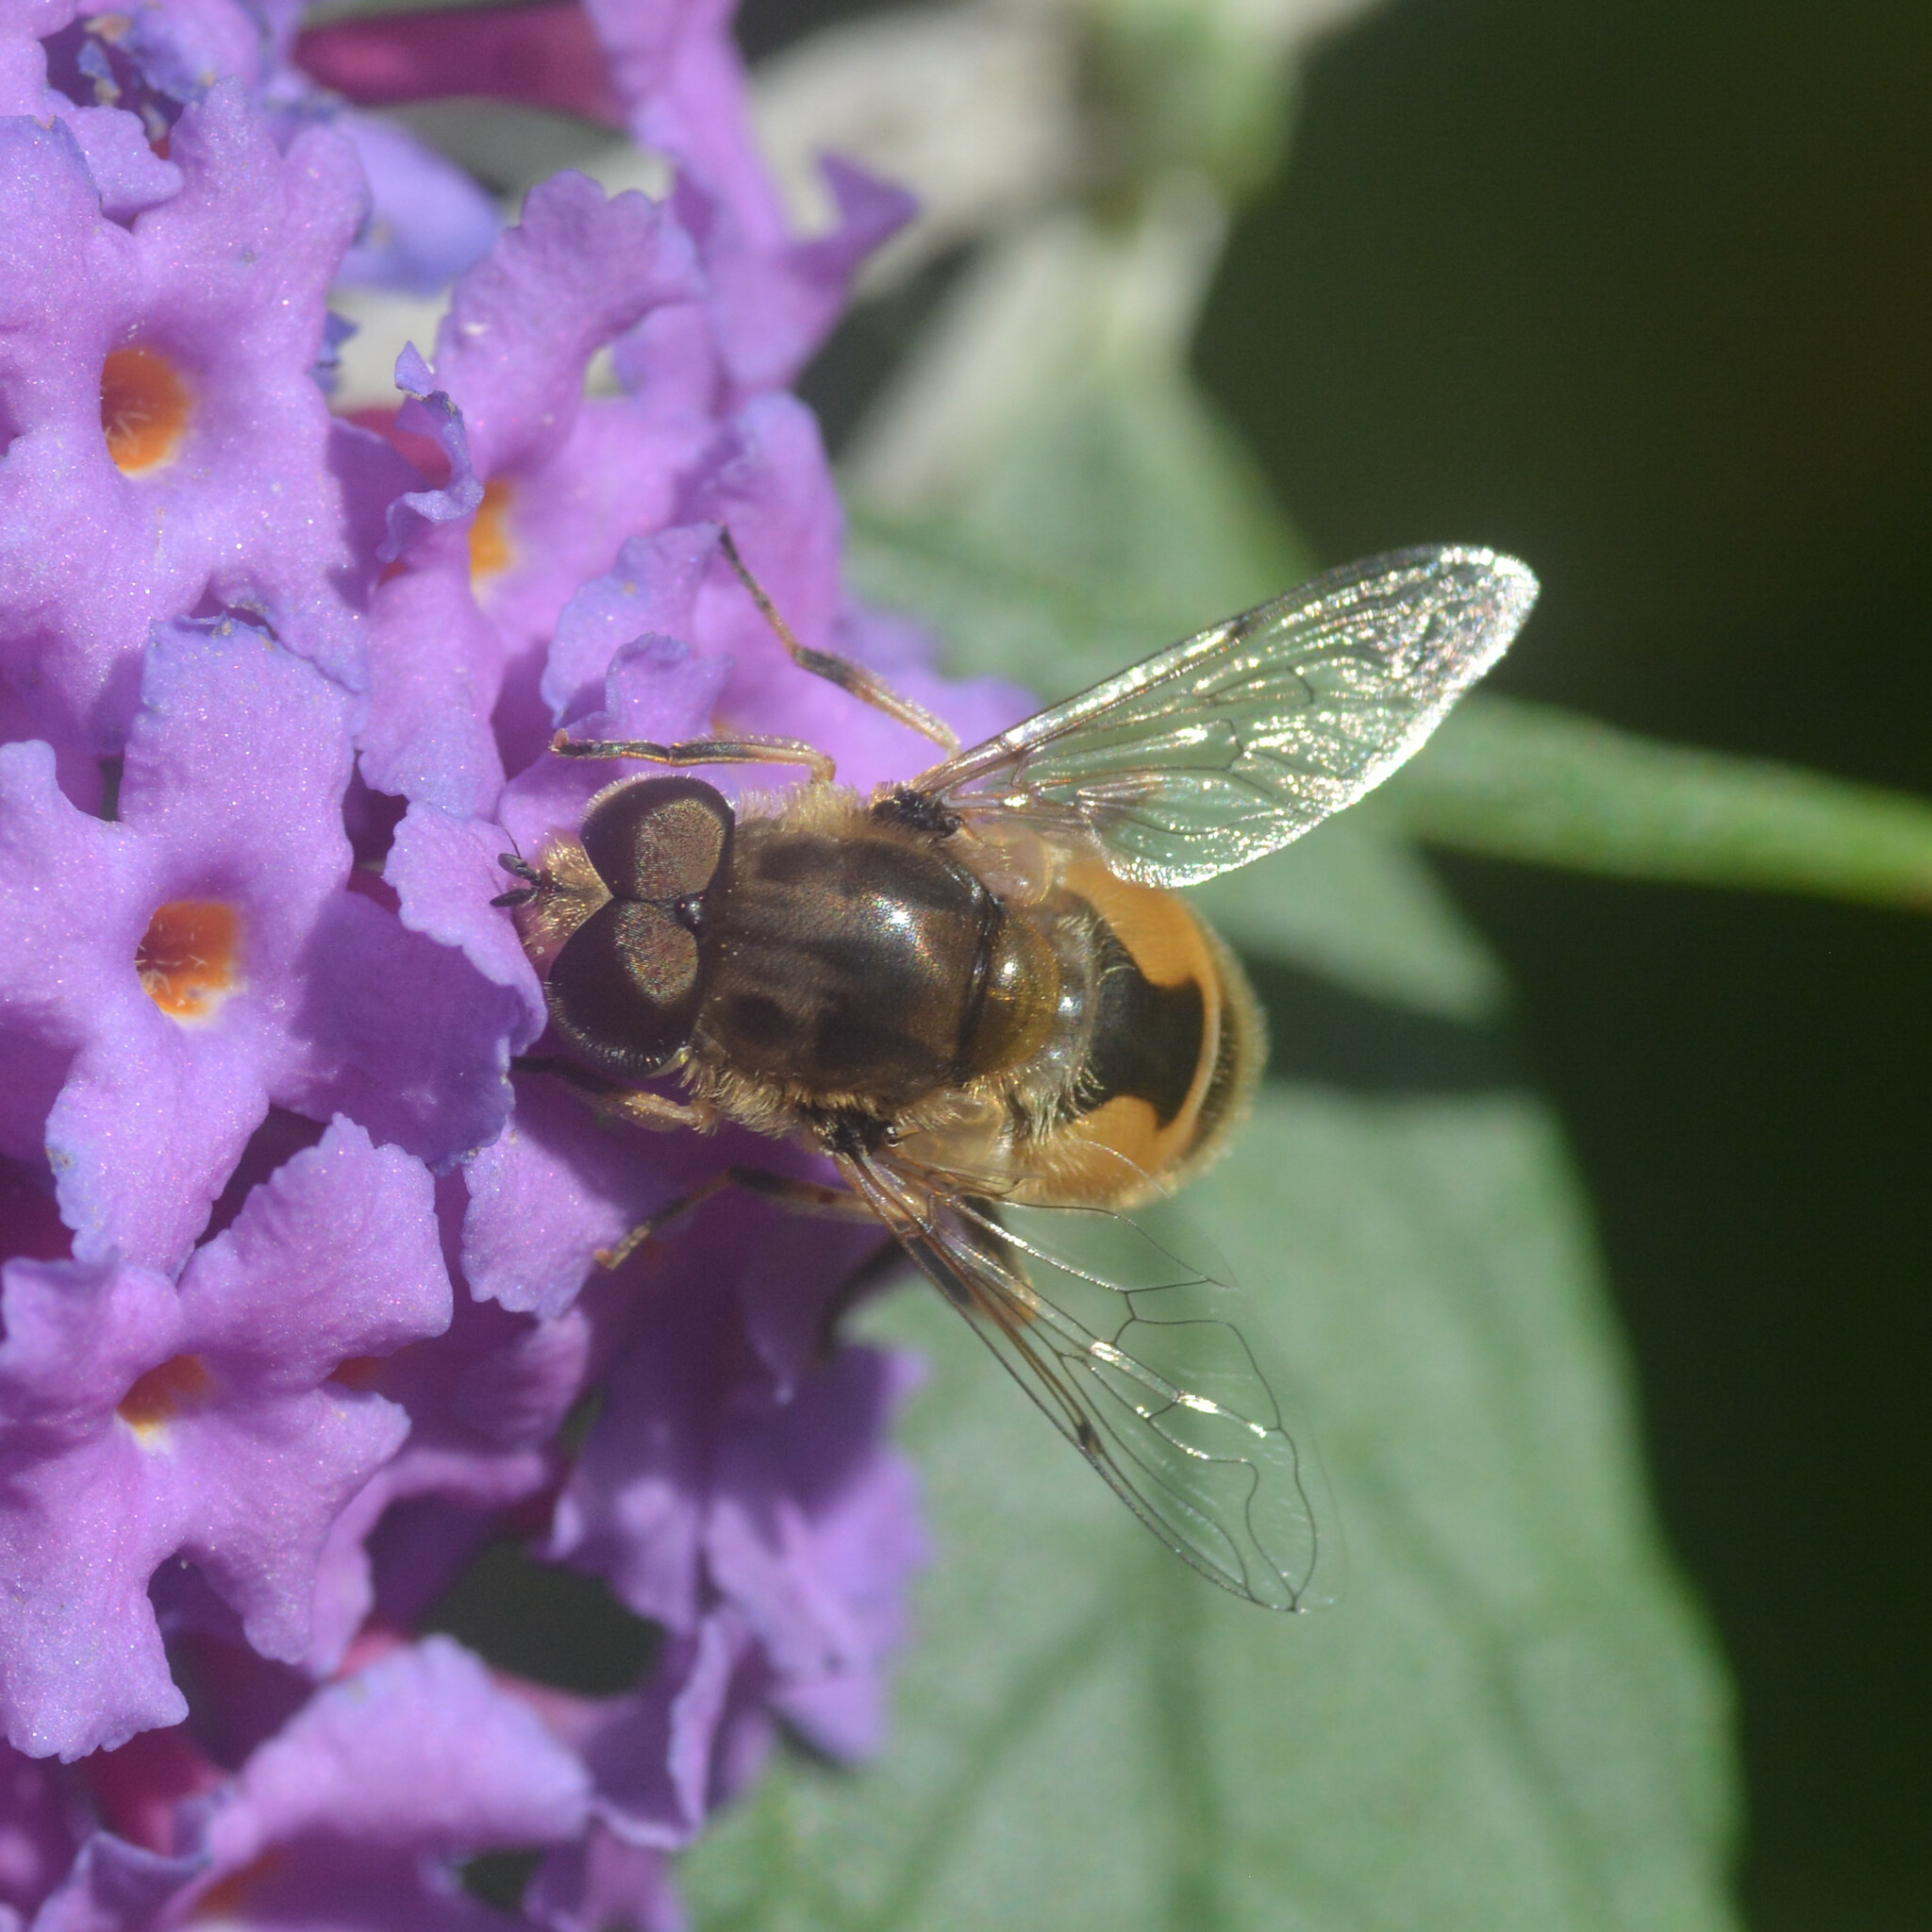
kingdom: Animalia
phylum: Arthropoda
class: Insecta
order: Diptera
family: Syrphidae
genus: Eristalis
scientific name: Eristalis arbustorum
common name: Hover fly
